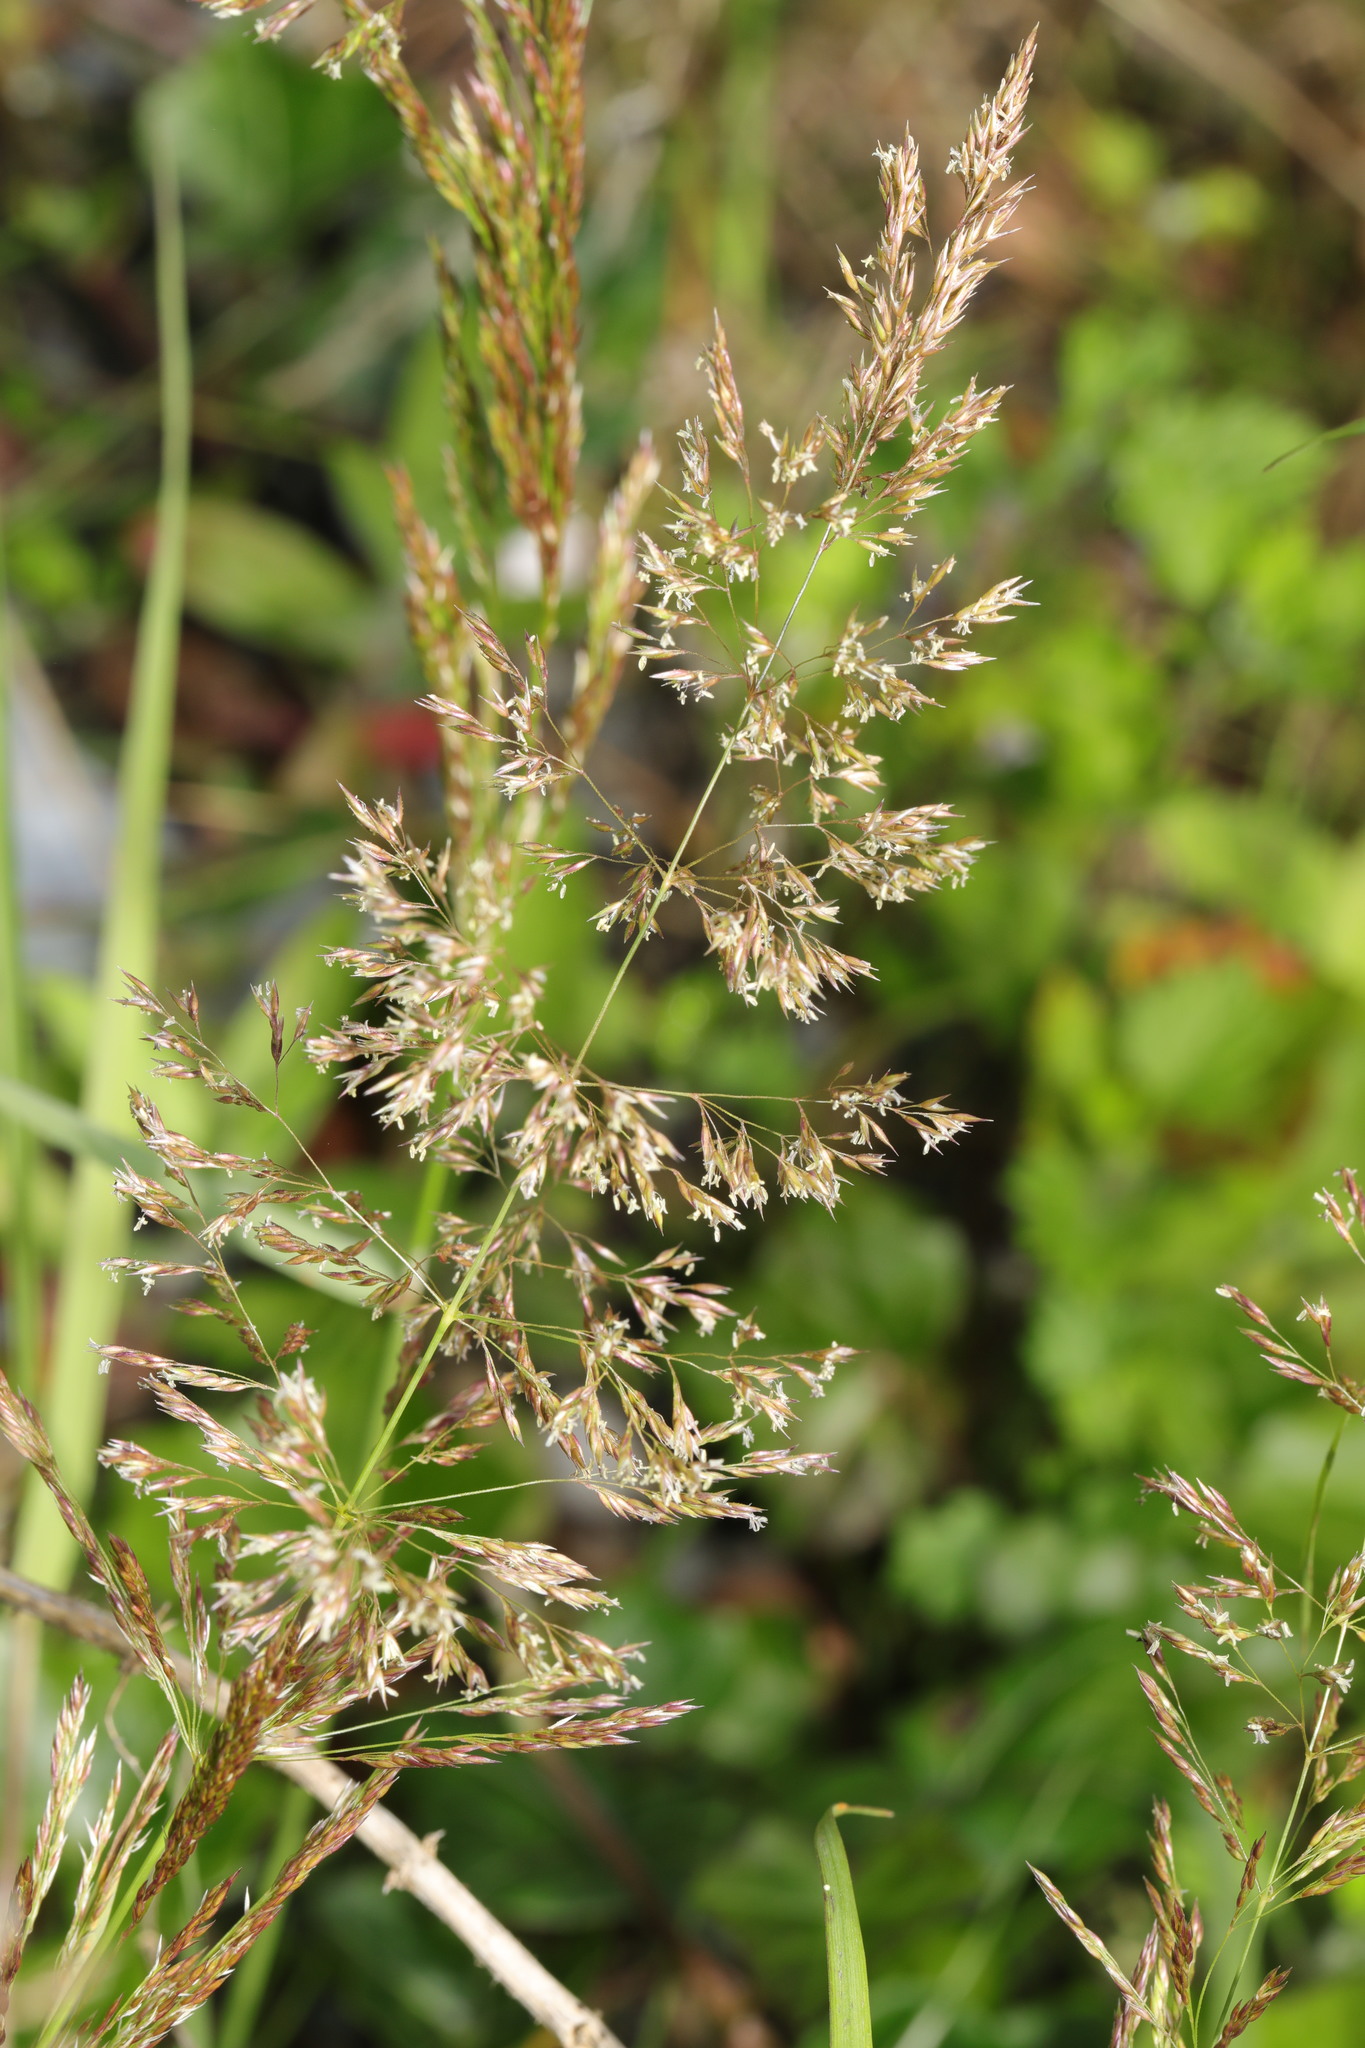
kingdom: Plantae
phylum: Tracheophyta
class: Liliopsida
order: Poales
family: Poaceae
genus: Agrostis
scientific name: Agrostis capillaris
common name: Colonial bentgrass
